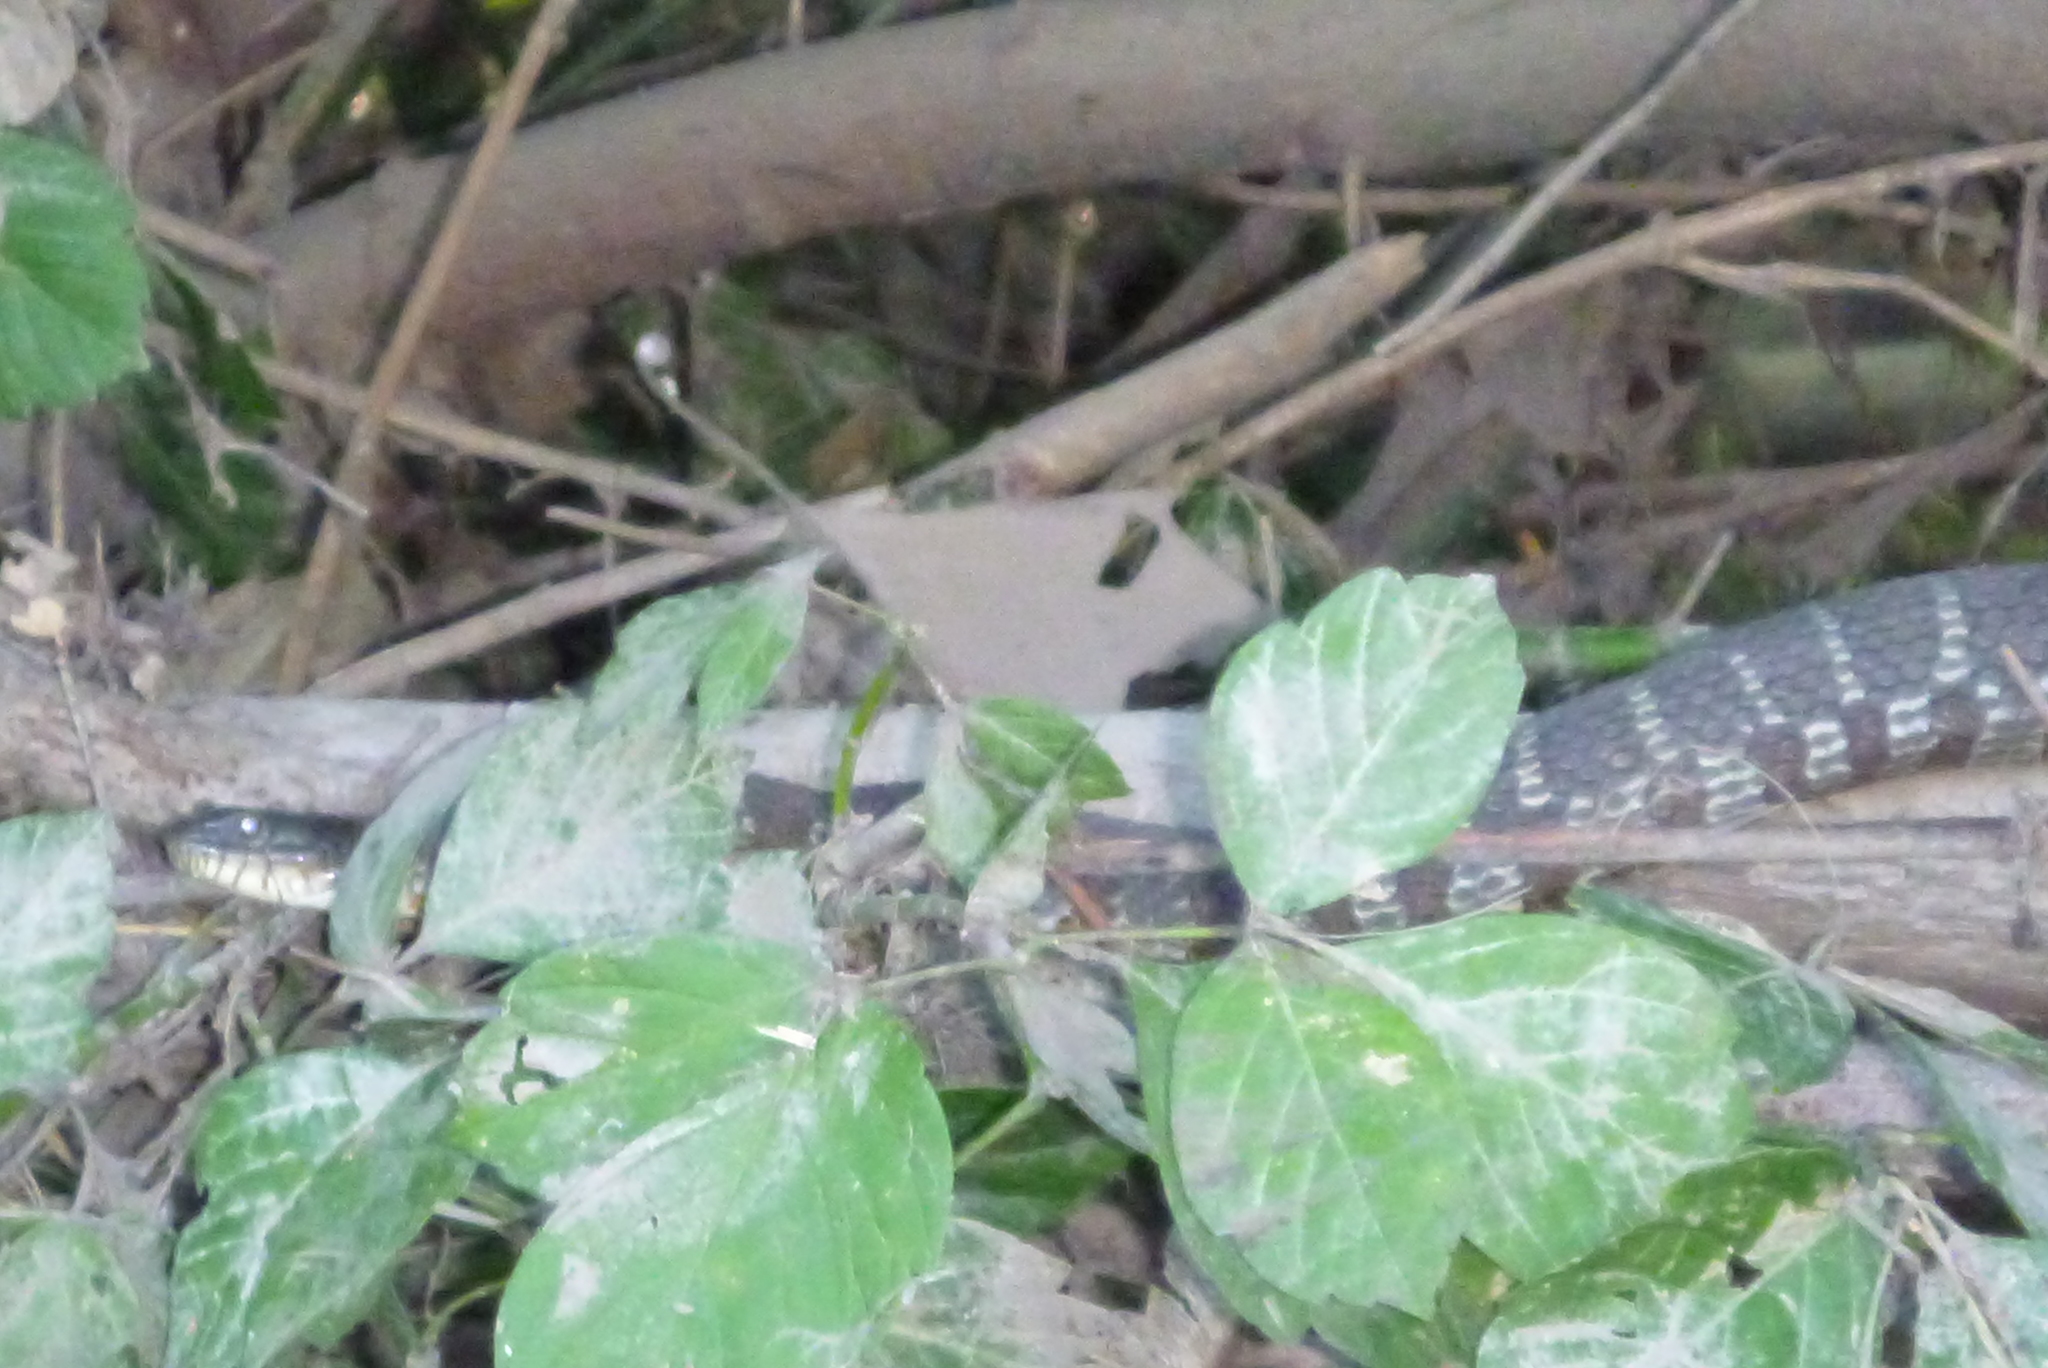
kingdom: Animalia
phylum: Chordata
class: Squamata
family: Colubridae
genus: Nerodia
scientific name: Nerodia sipedon
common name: Northern water snake
